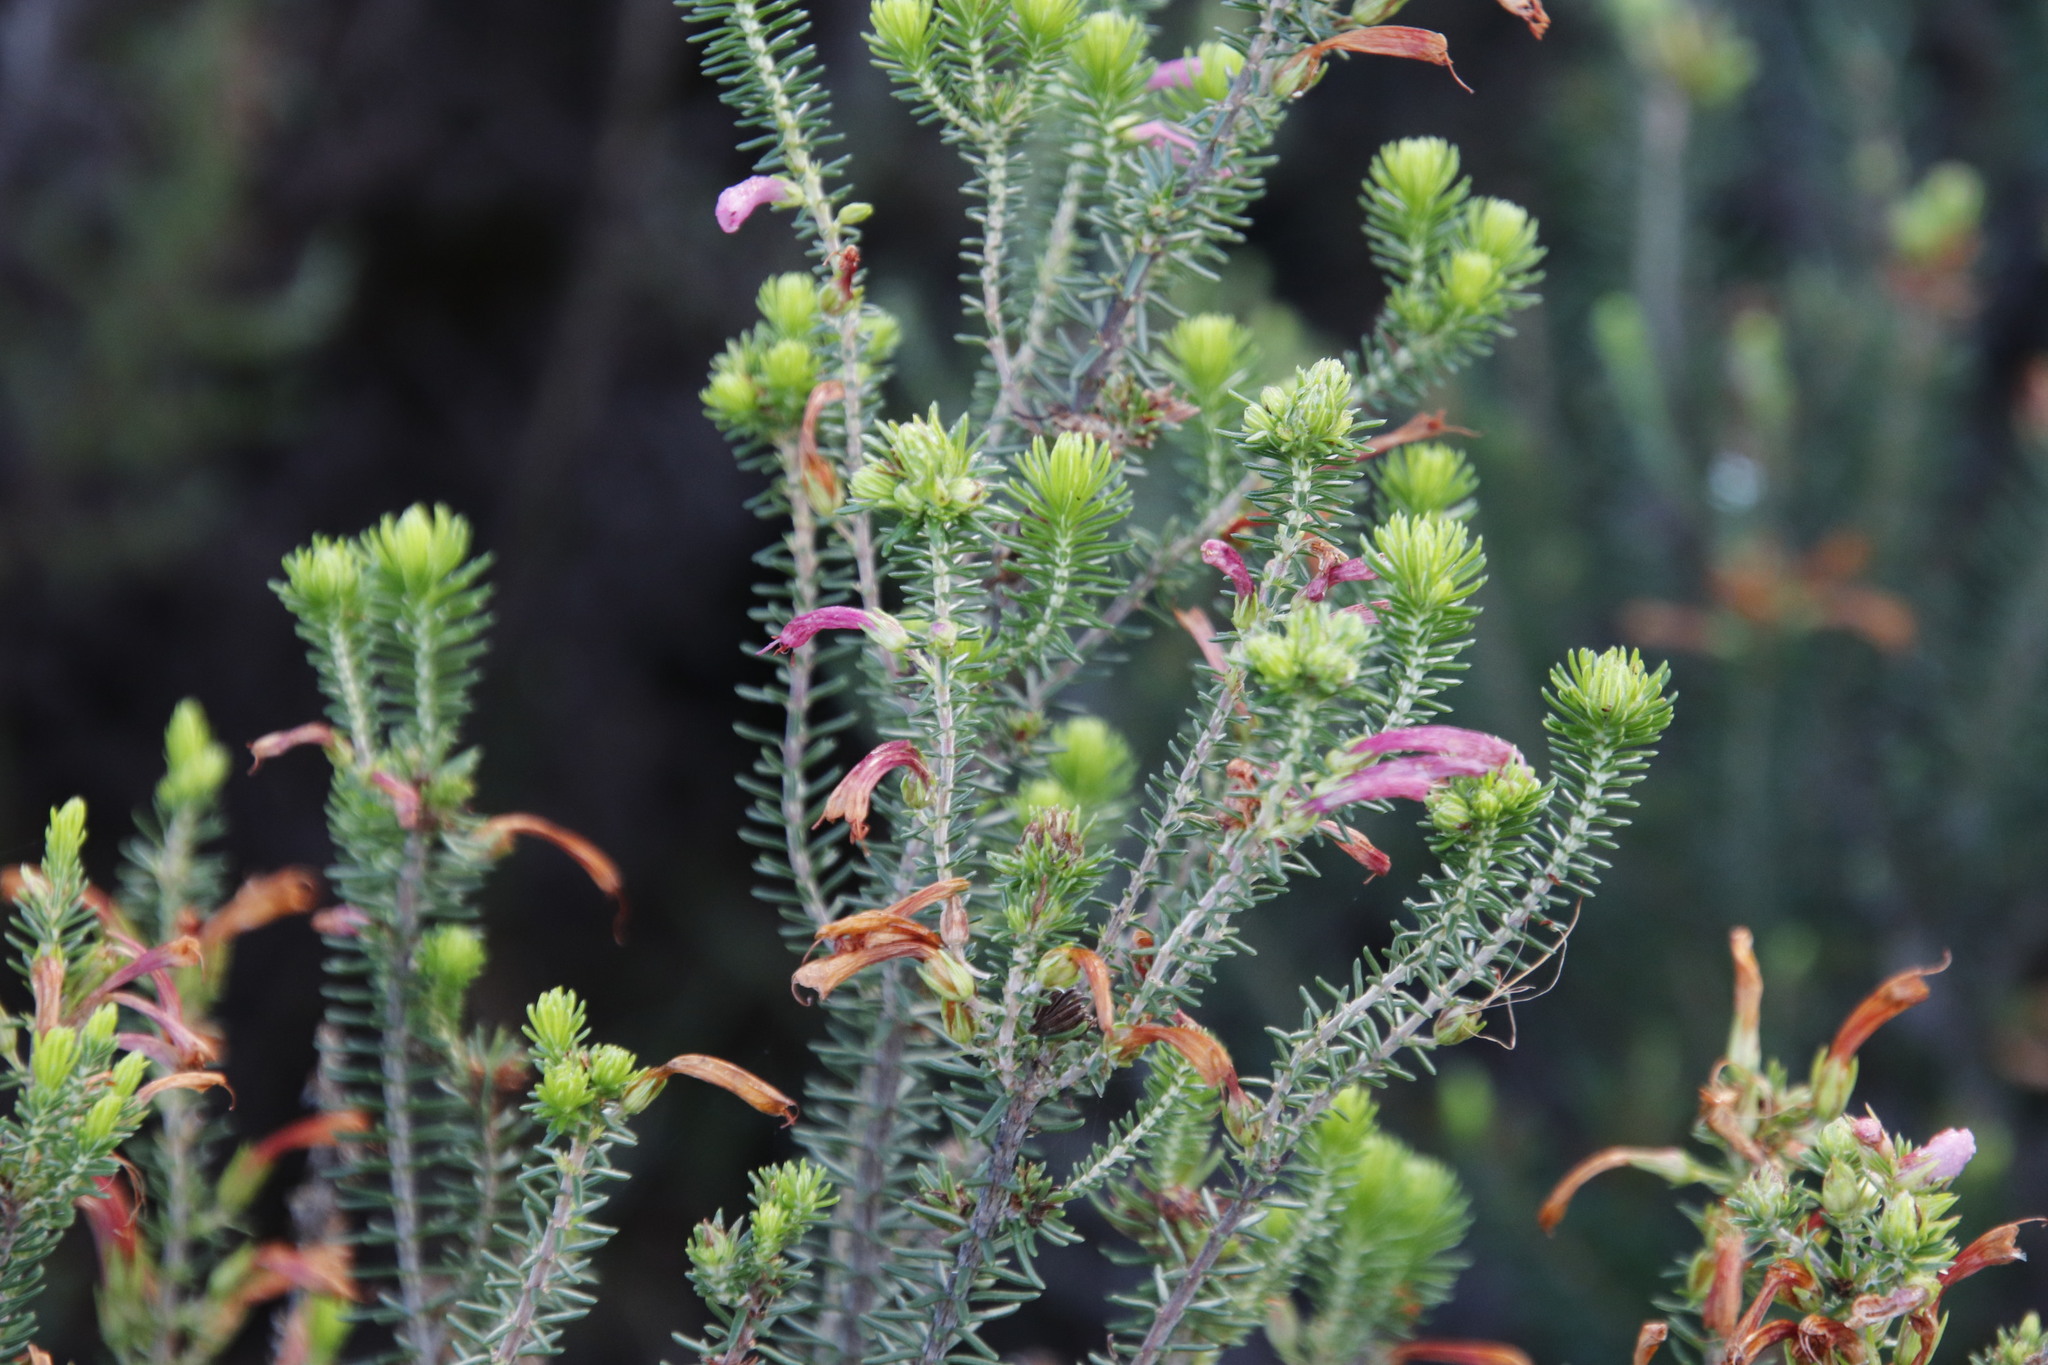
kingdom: Plantae
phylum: Tracheophyta
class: Magnoliopsida
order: Ericales
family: Ericaceae
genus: Erica
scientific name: Erica abietina
